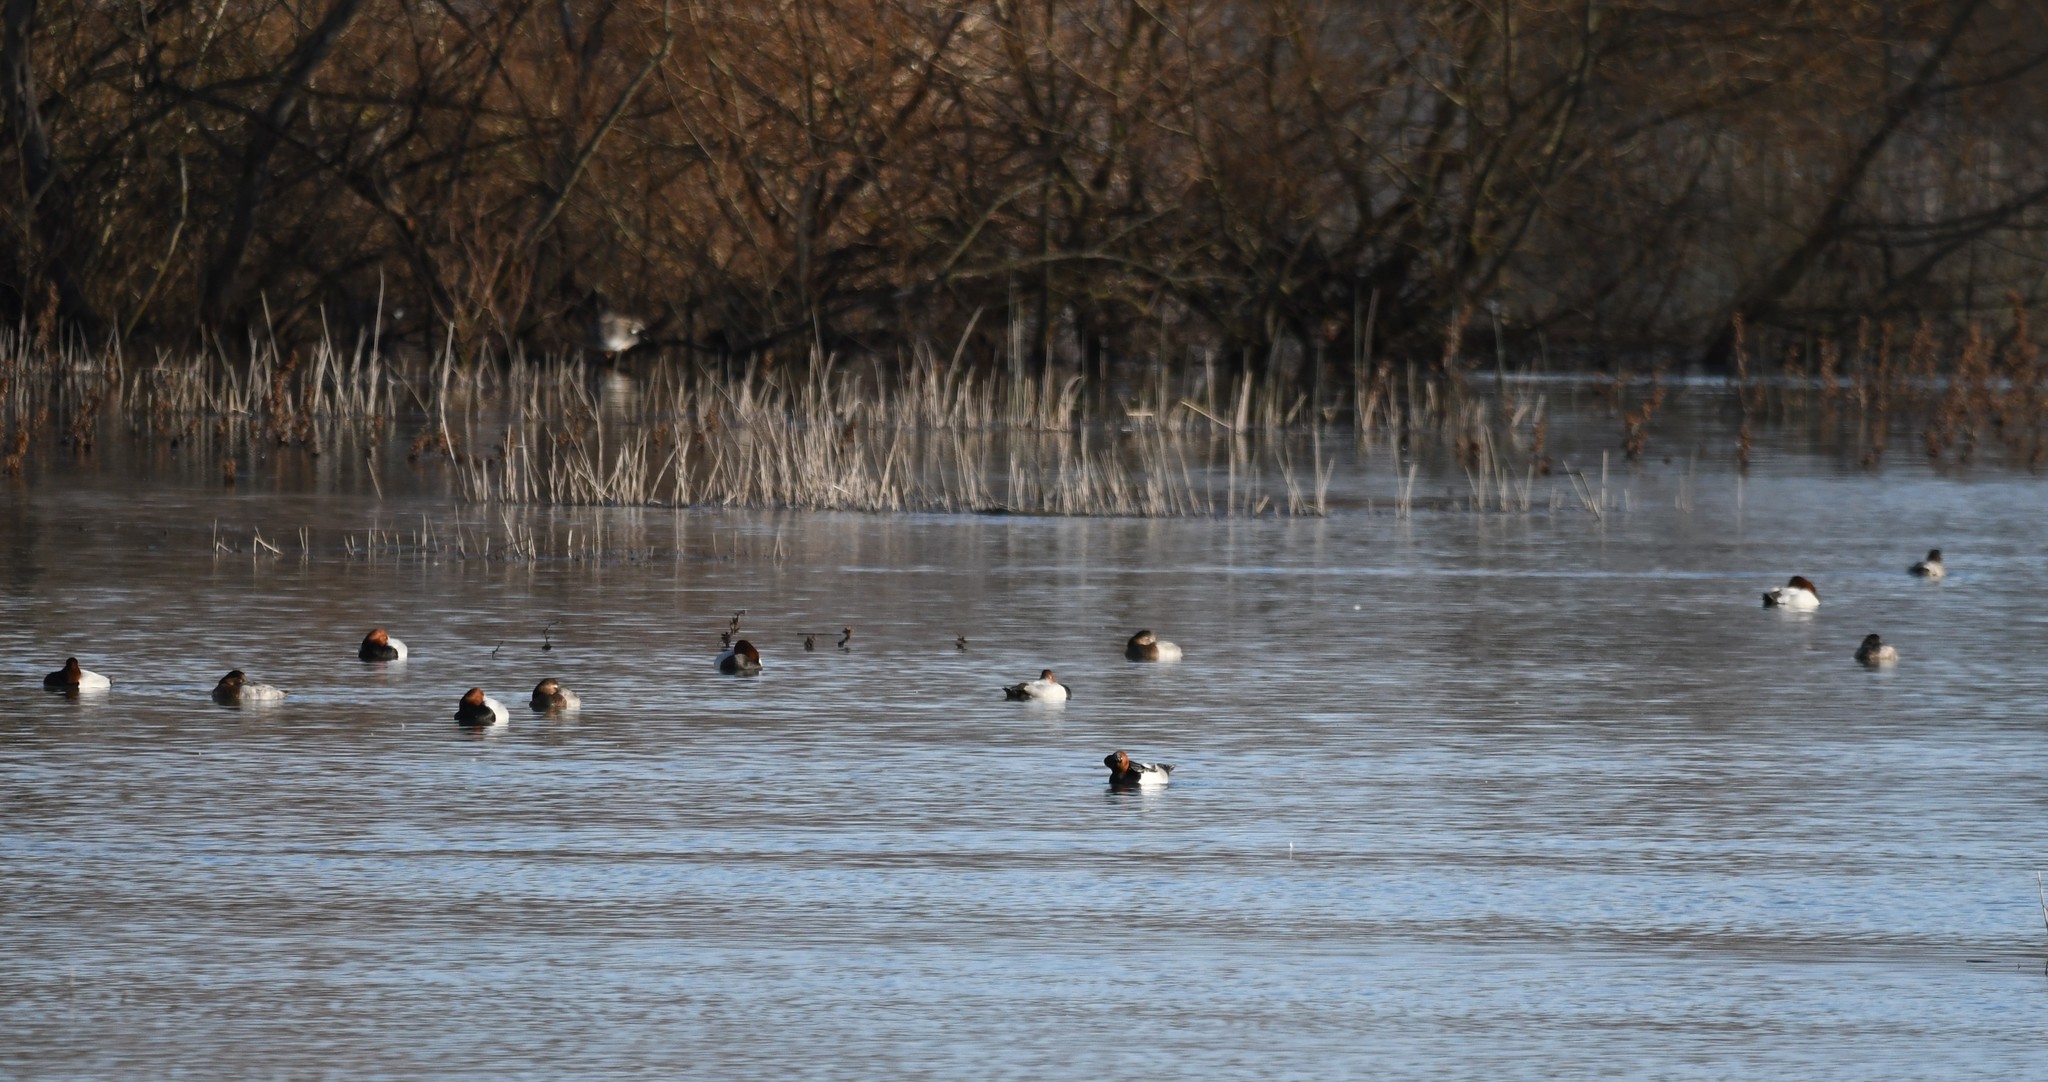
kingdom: Animalia
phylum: Chordata
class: Aves
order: Anseriformes
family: Anatidae
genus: Aythya
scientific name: Aythya ferina
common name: Common pochard
